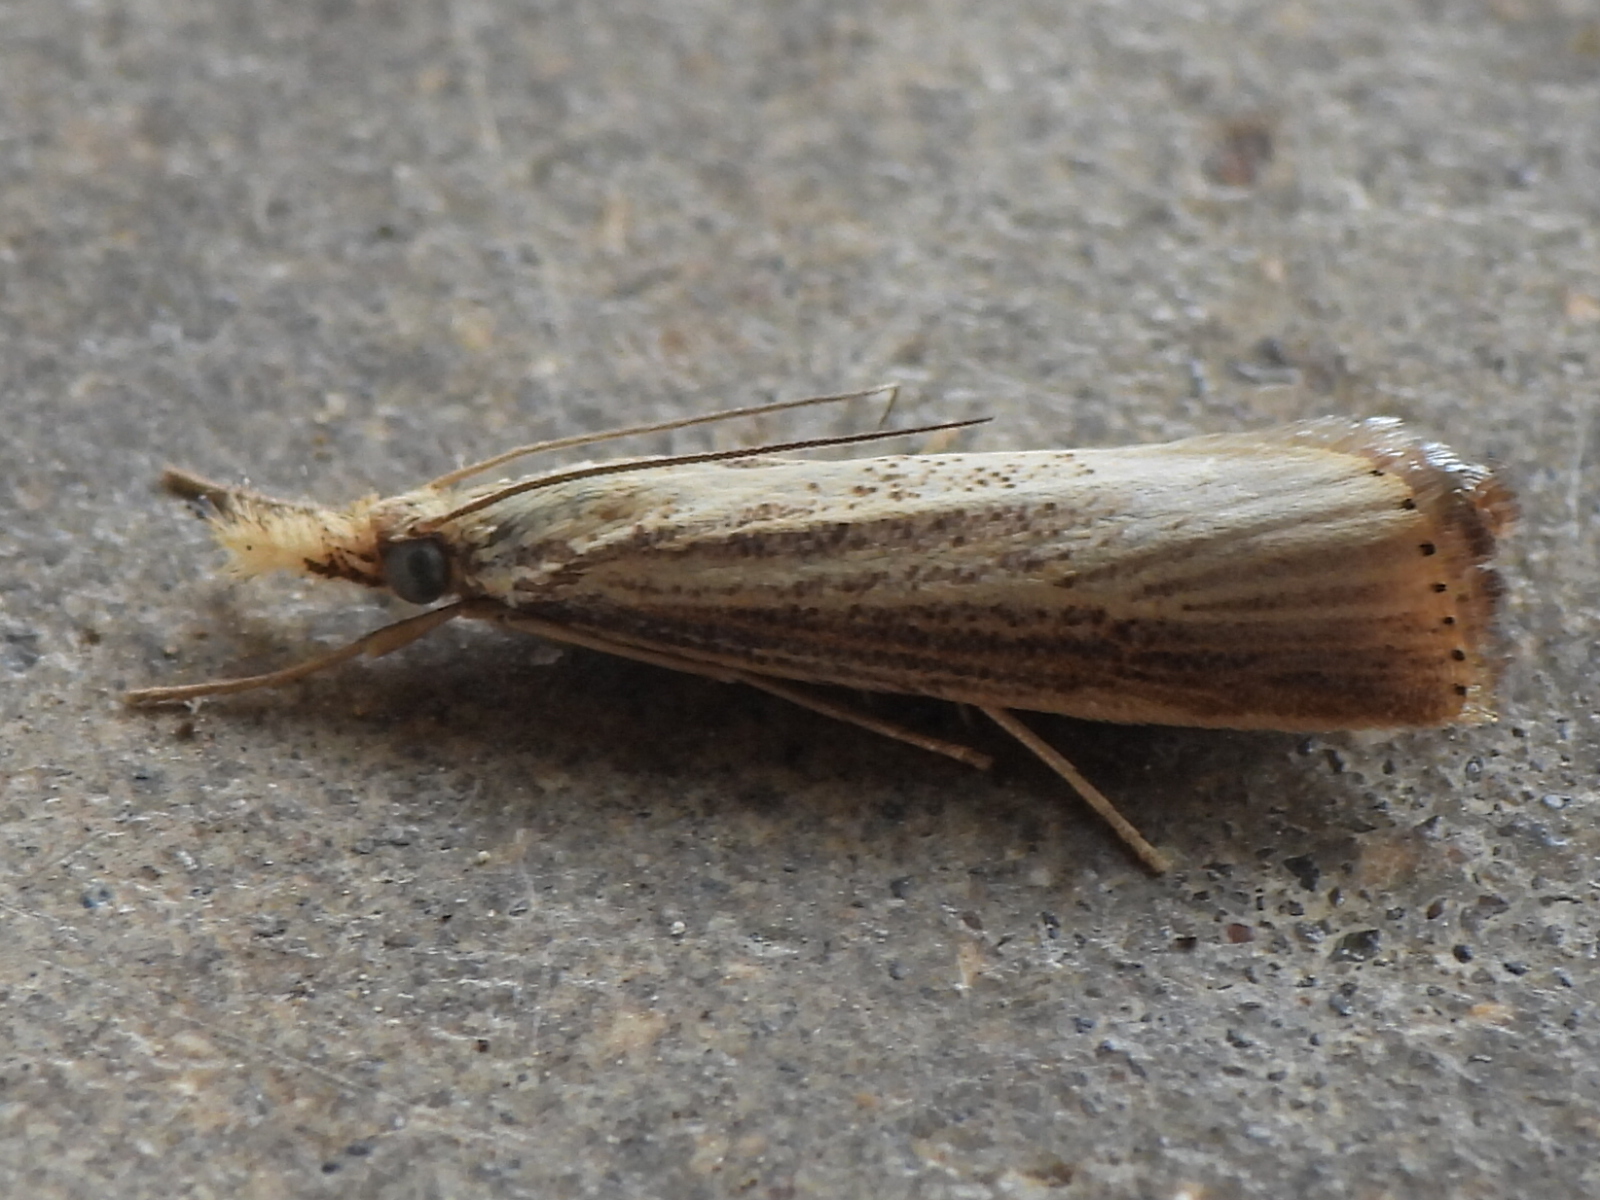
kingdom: Animalia
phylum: Arthropoda
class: Insecta
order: Lepidoptera
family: Crambidae
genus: Agriphila
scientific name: Agriphila vulgivagellus
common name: Vagabond crambus moth
